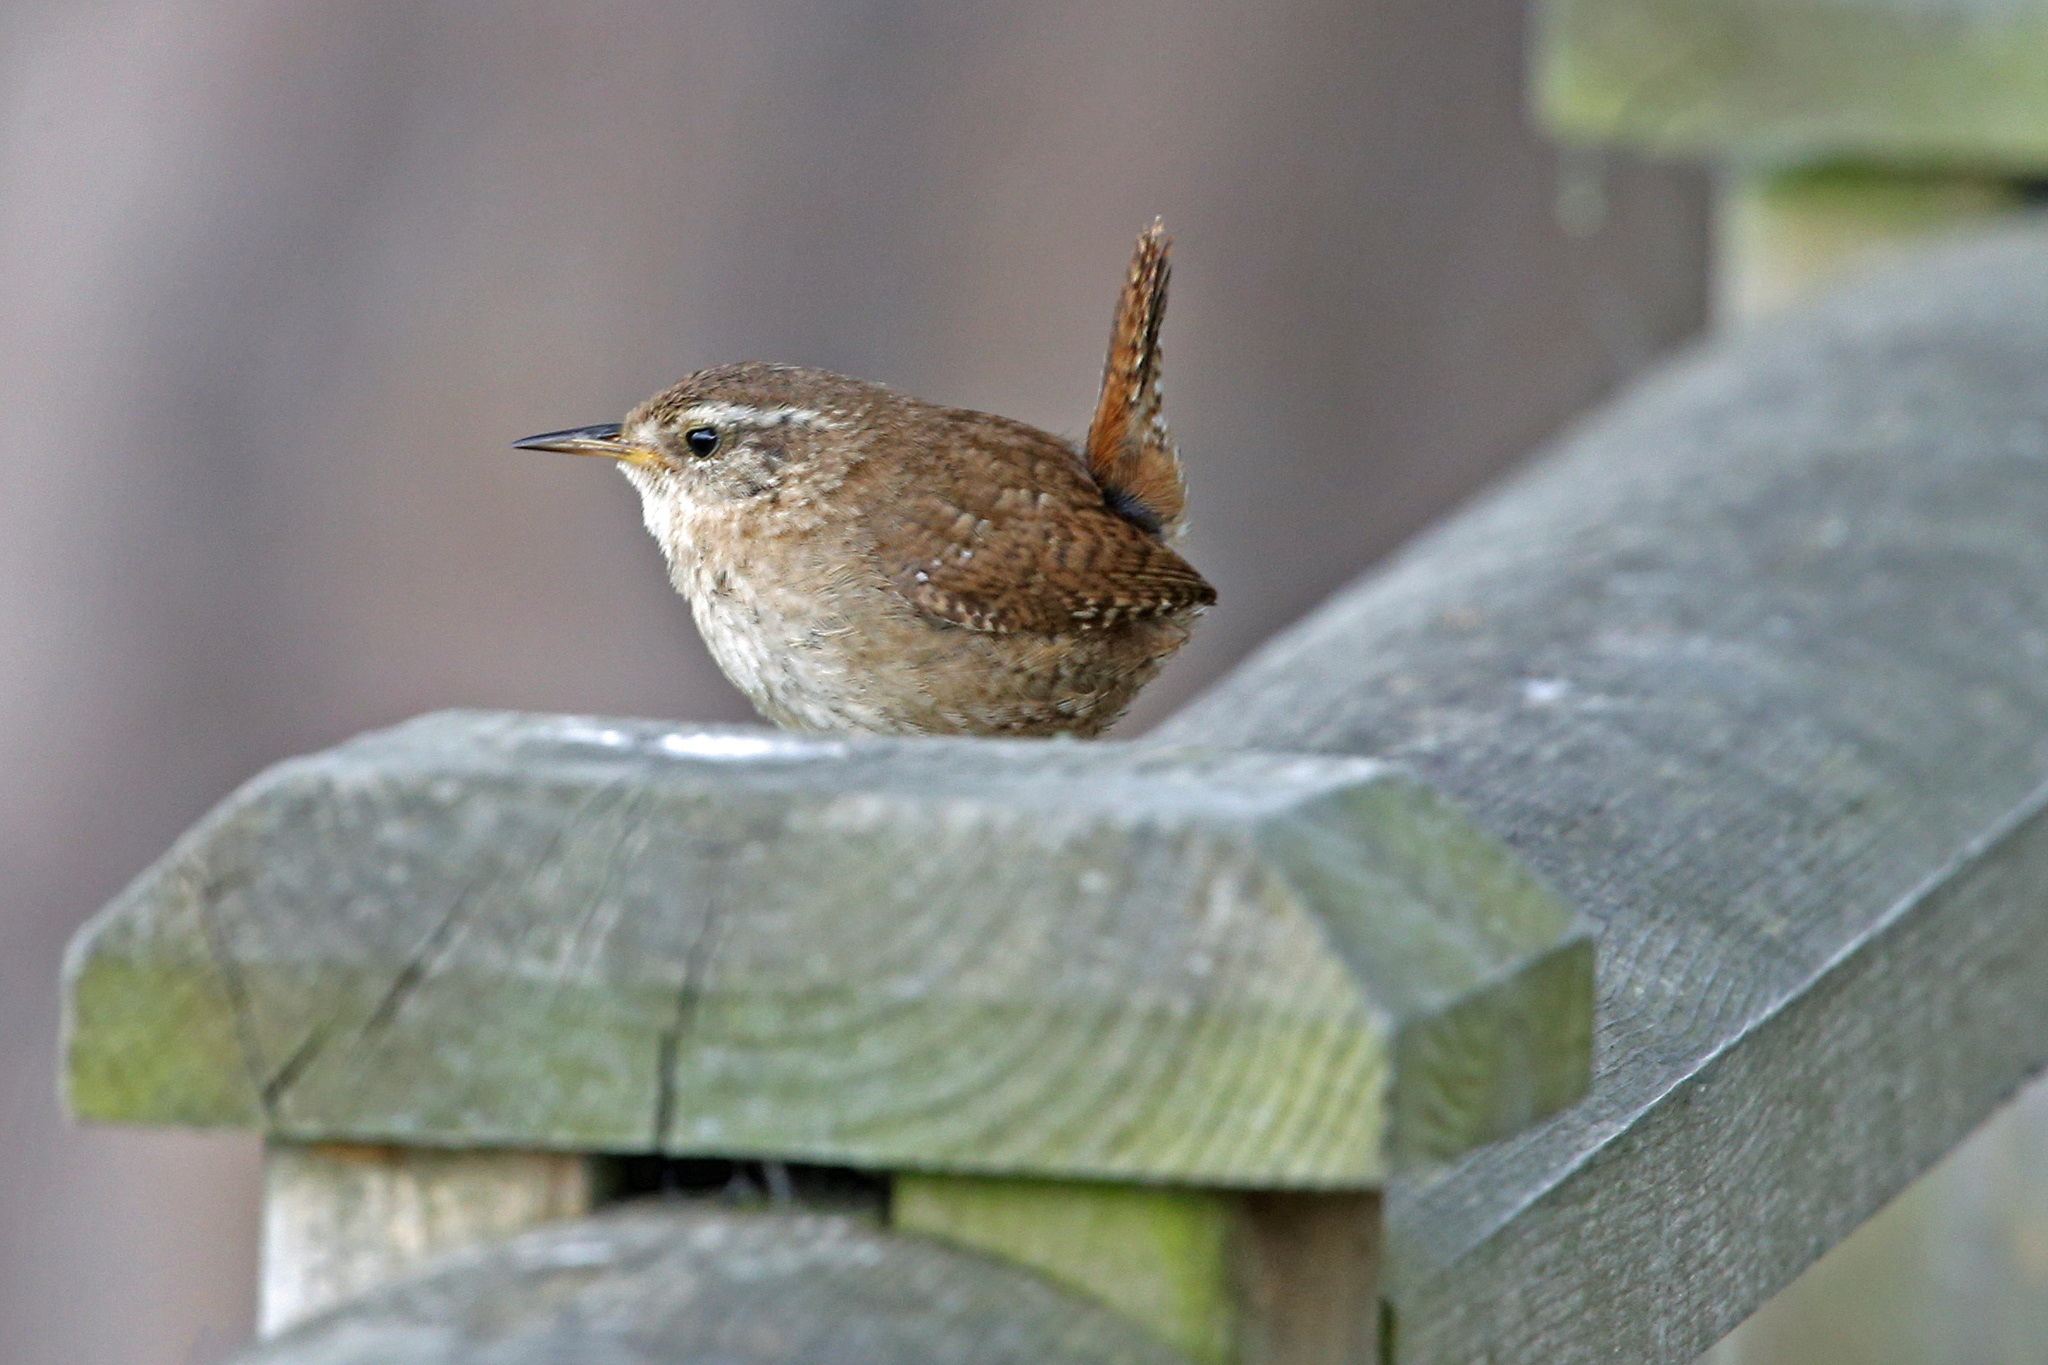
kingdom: Animalia
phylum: Chordata
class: Aves
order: Passeriformes
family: Troglodytidae
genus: Troglodytes
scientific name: Troglodytes troglodytes
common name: Eurasian wren
